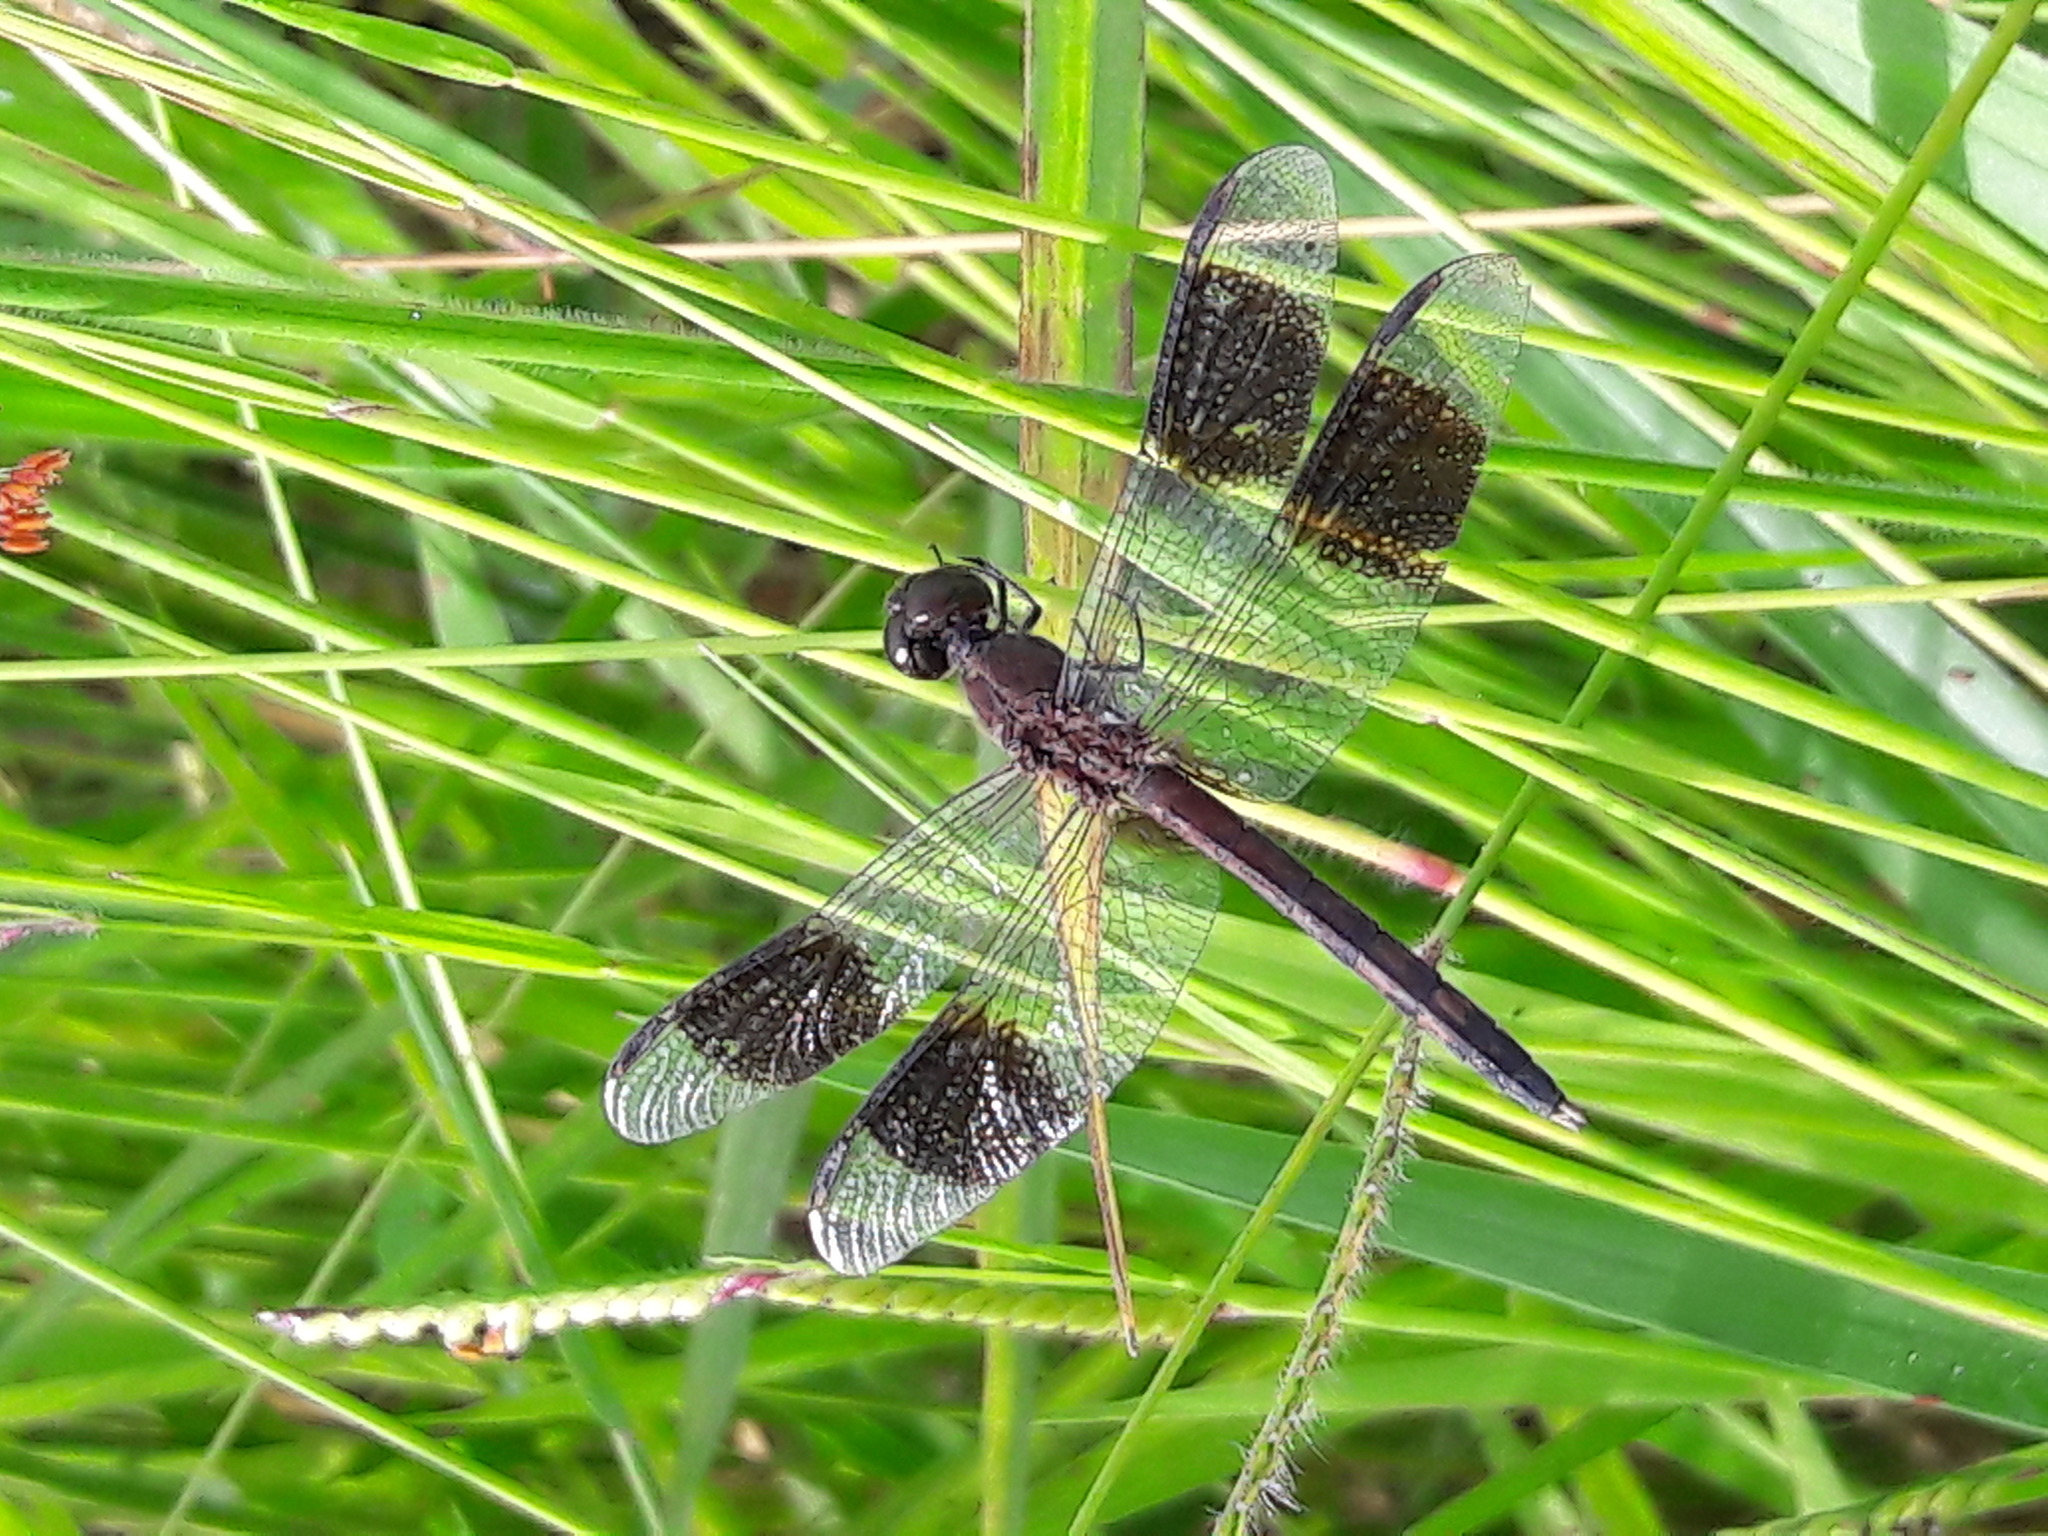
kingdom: Animalia
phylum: Arthropoda
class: Insecta
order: Odonata
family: Libellulidae
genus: Erythrodiplax
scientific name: Erythrodiplax umbrata
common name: Band-winged dragonlet
